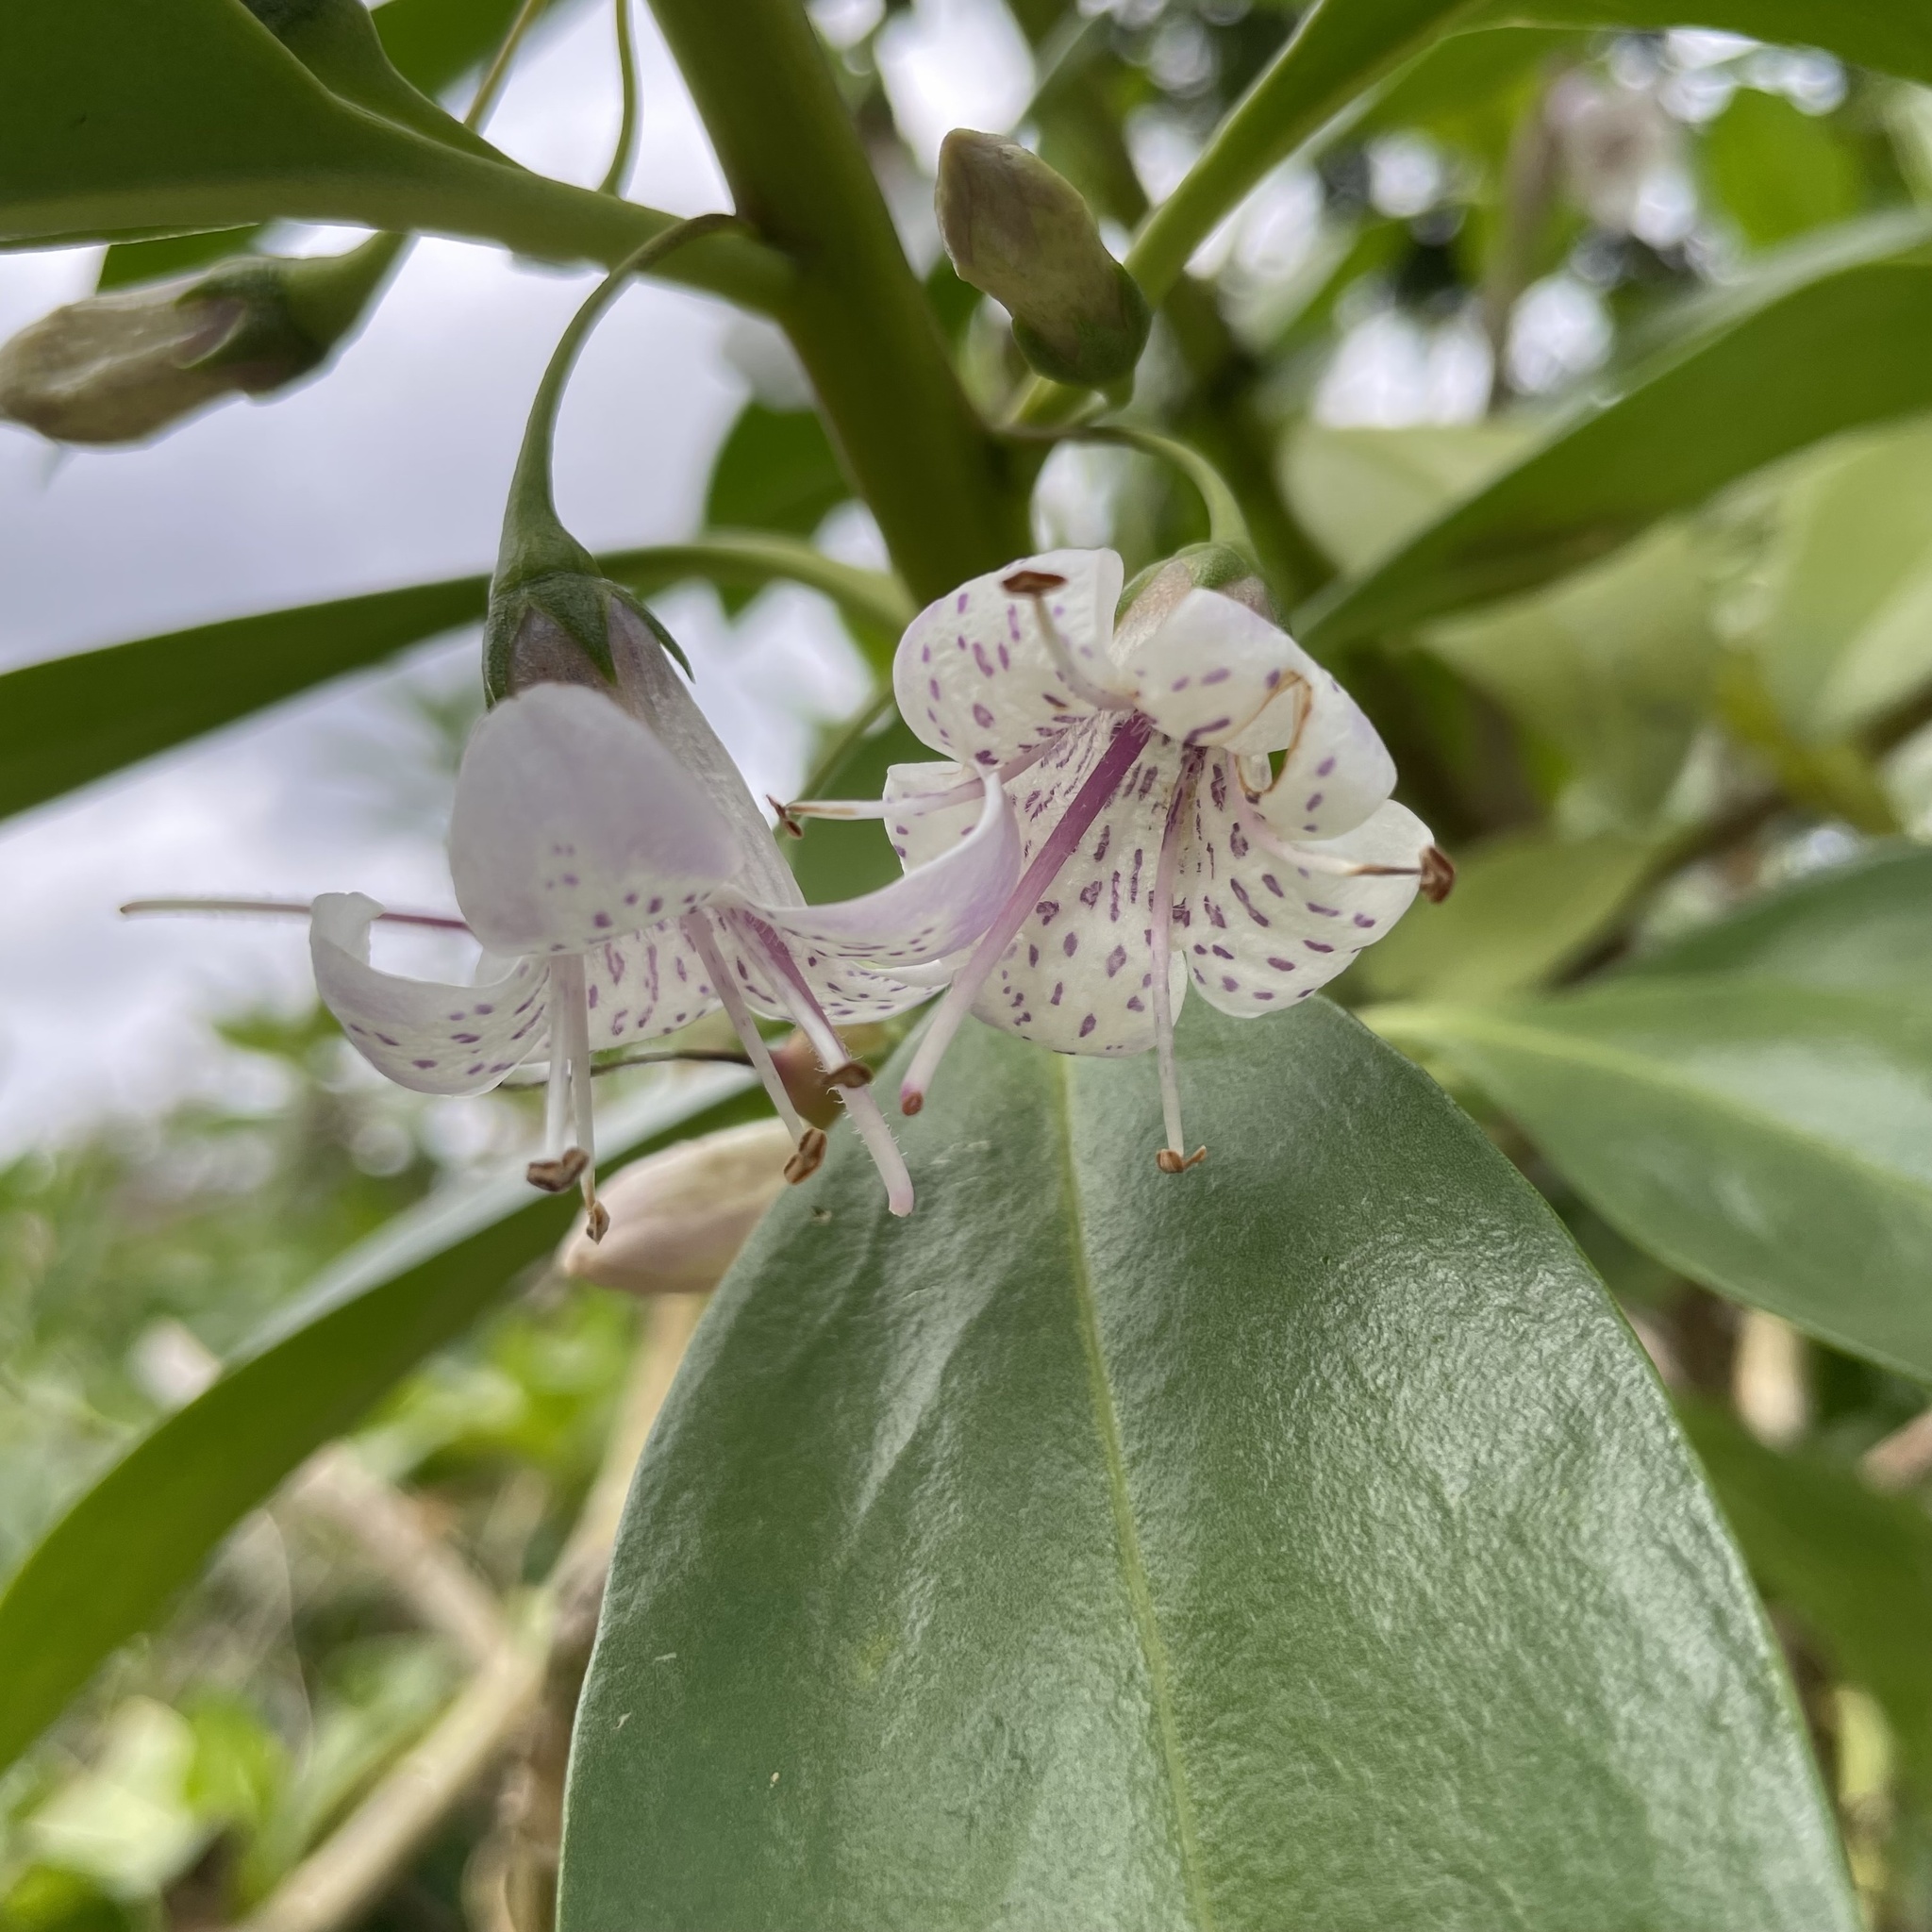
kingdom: Plantae
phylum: Tracheophyta
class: Magnoliopsida
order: Lamiales
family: Scrophulariaceae
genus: Myoporum
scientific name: Myoporum bontioides
